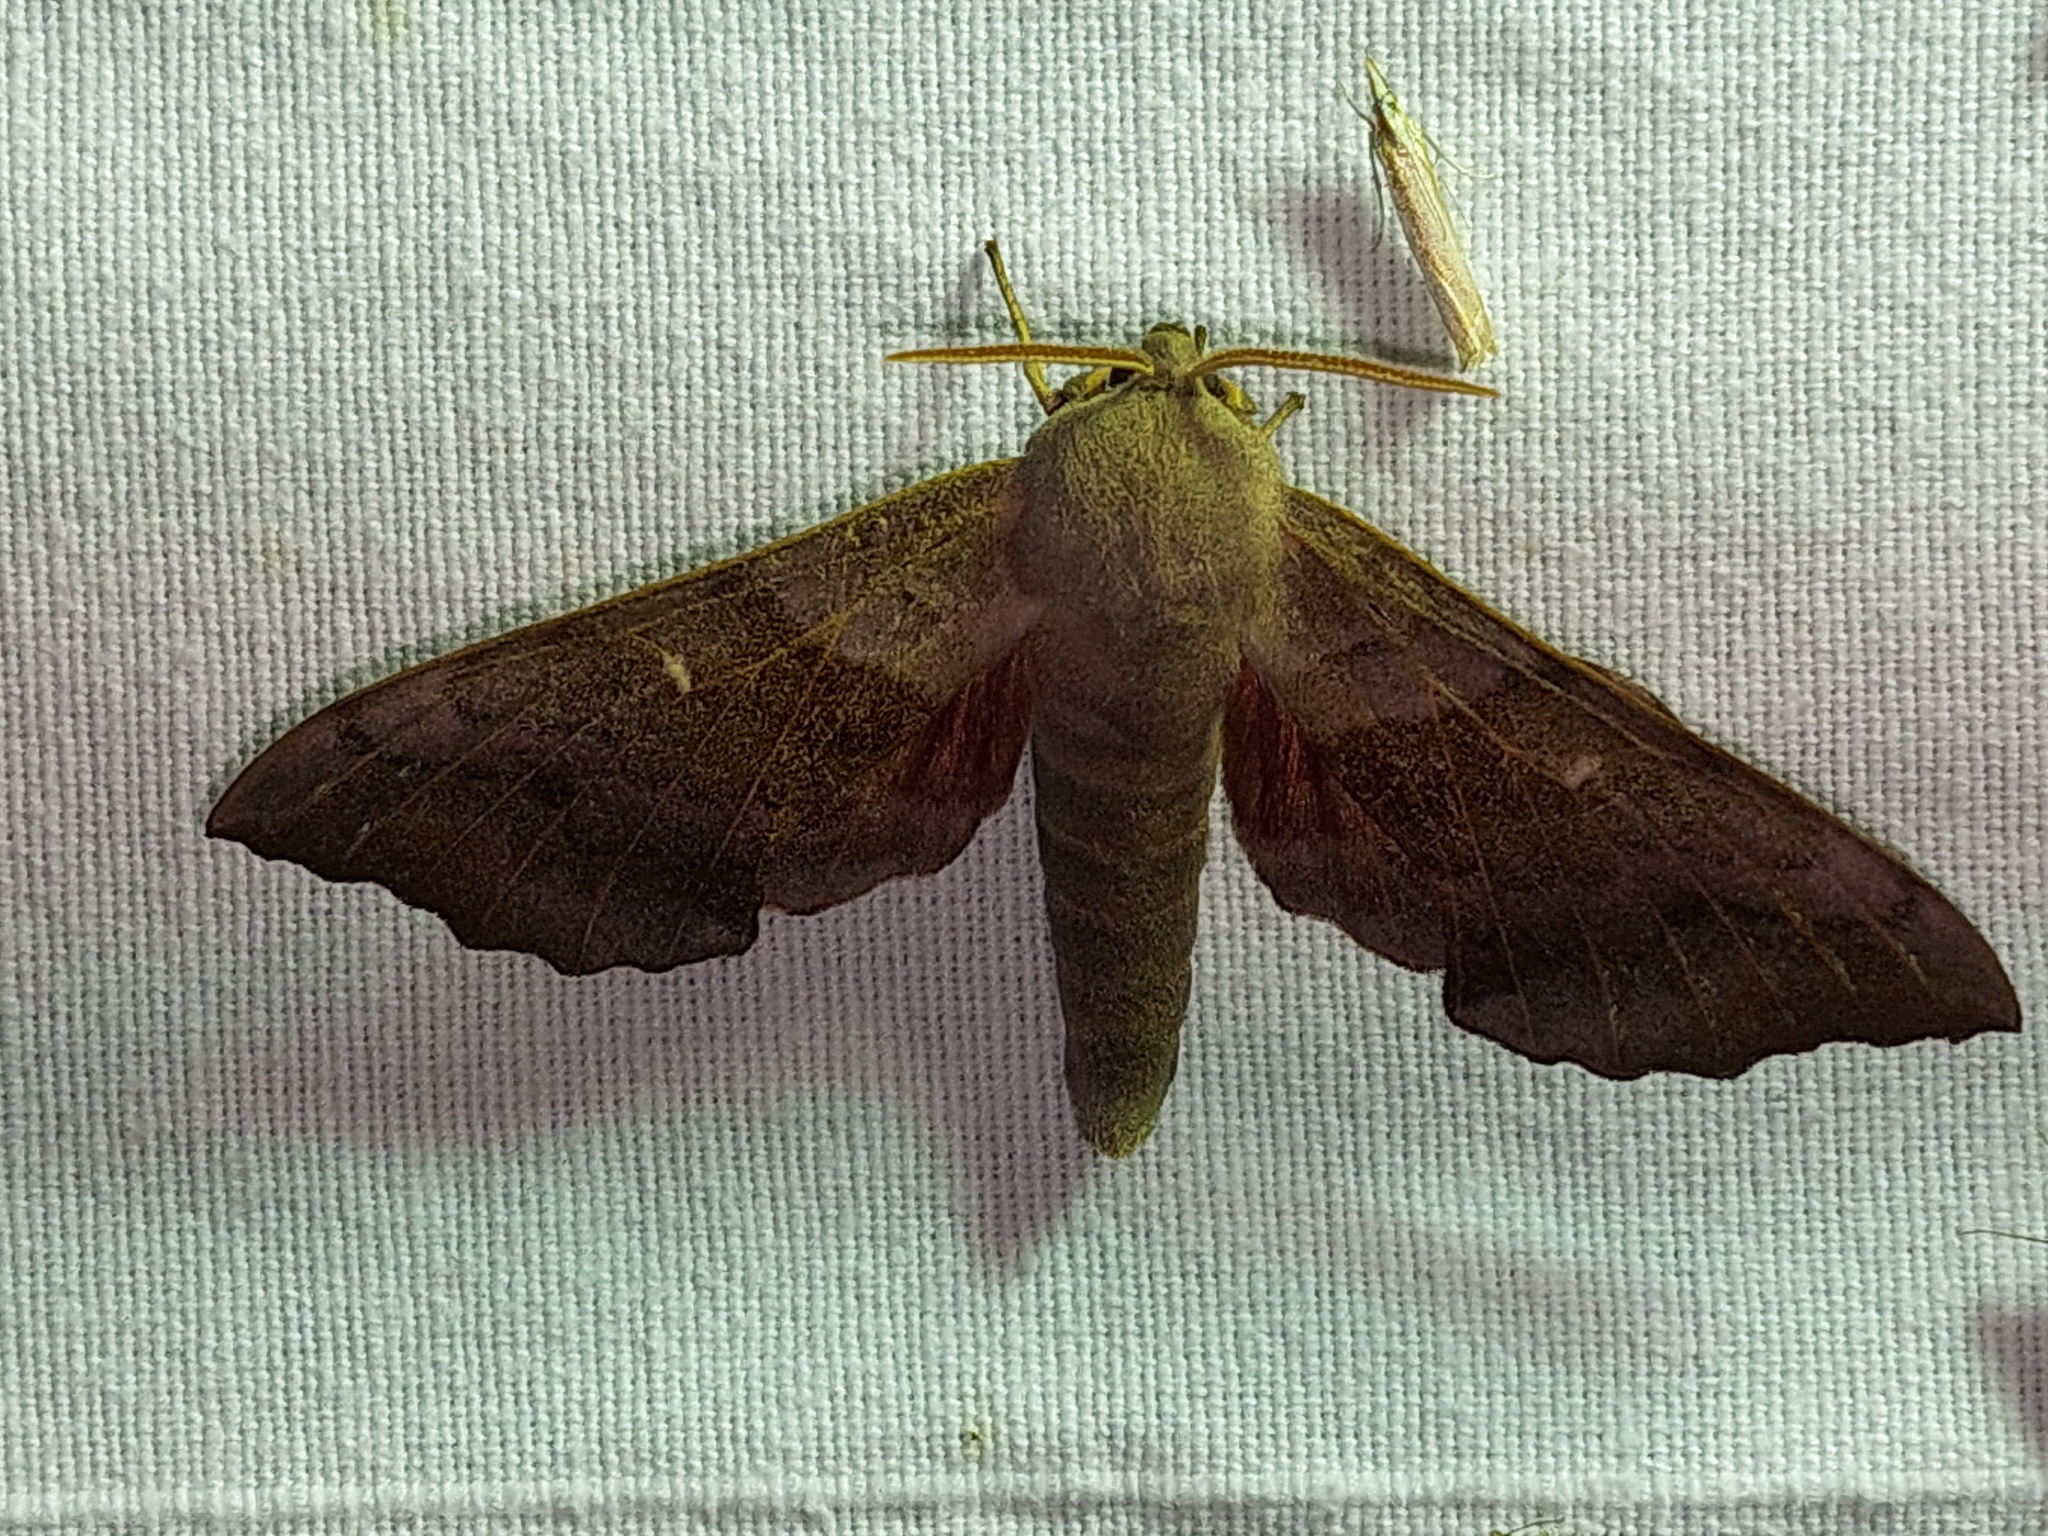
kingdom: Animalia
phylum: Arthropoda
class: Insecta
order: Lepidoptera
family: Sphingidae
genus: Laothoe
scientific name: Laothoe populi
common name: Poplar hawk-moth
